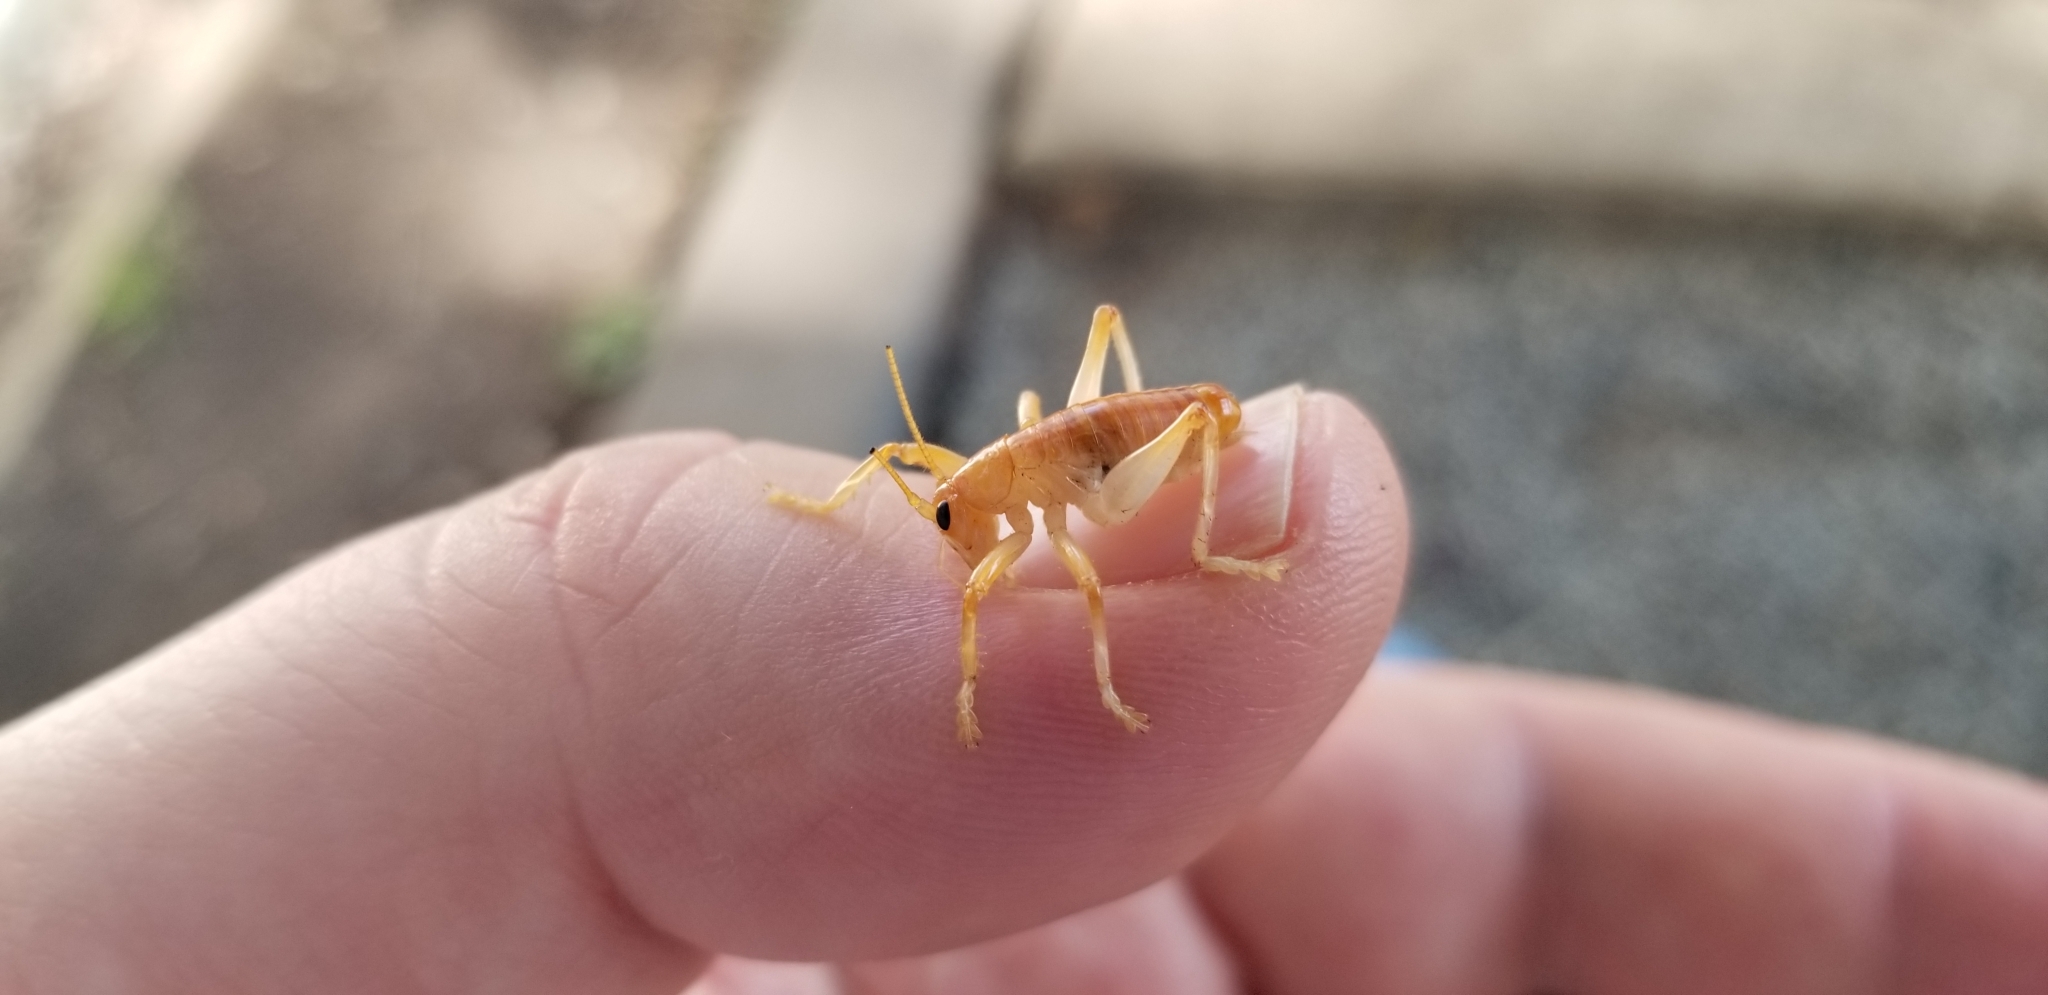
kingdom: Animalia
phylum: Arthropoda
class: Insecta
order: Orthoptera
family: Gryllacrididae
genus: Camptonotus
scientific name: Camptonotus carolinensis
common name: Carolina leaf-roller
